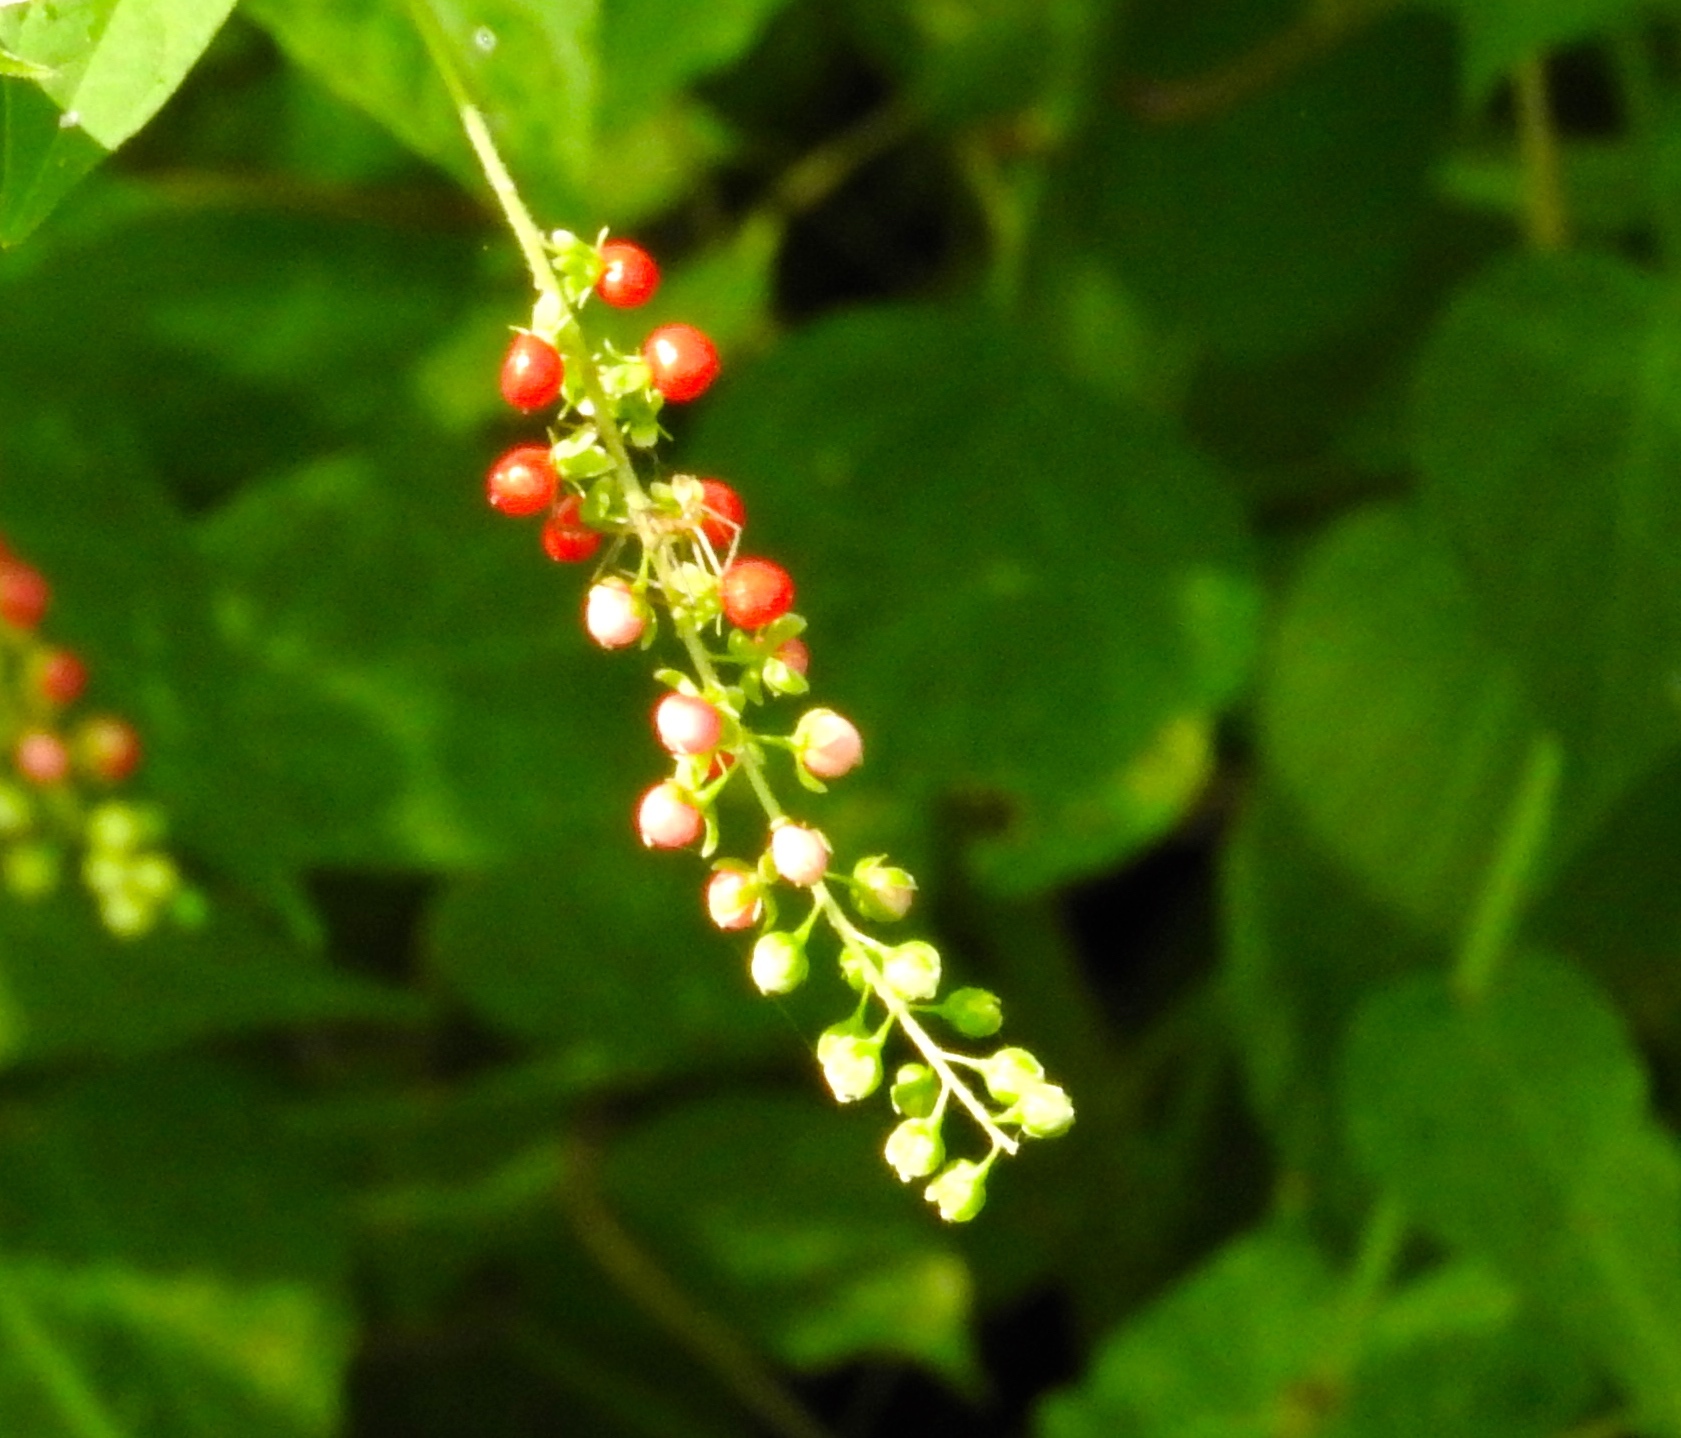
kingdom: Plantae
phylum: Tracheophyta
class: Magnoliopsida
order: Caryophyllales
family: Phytolaccaceae
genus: Rivina
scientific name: Rivina humilis
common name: Rougeplant
